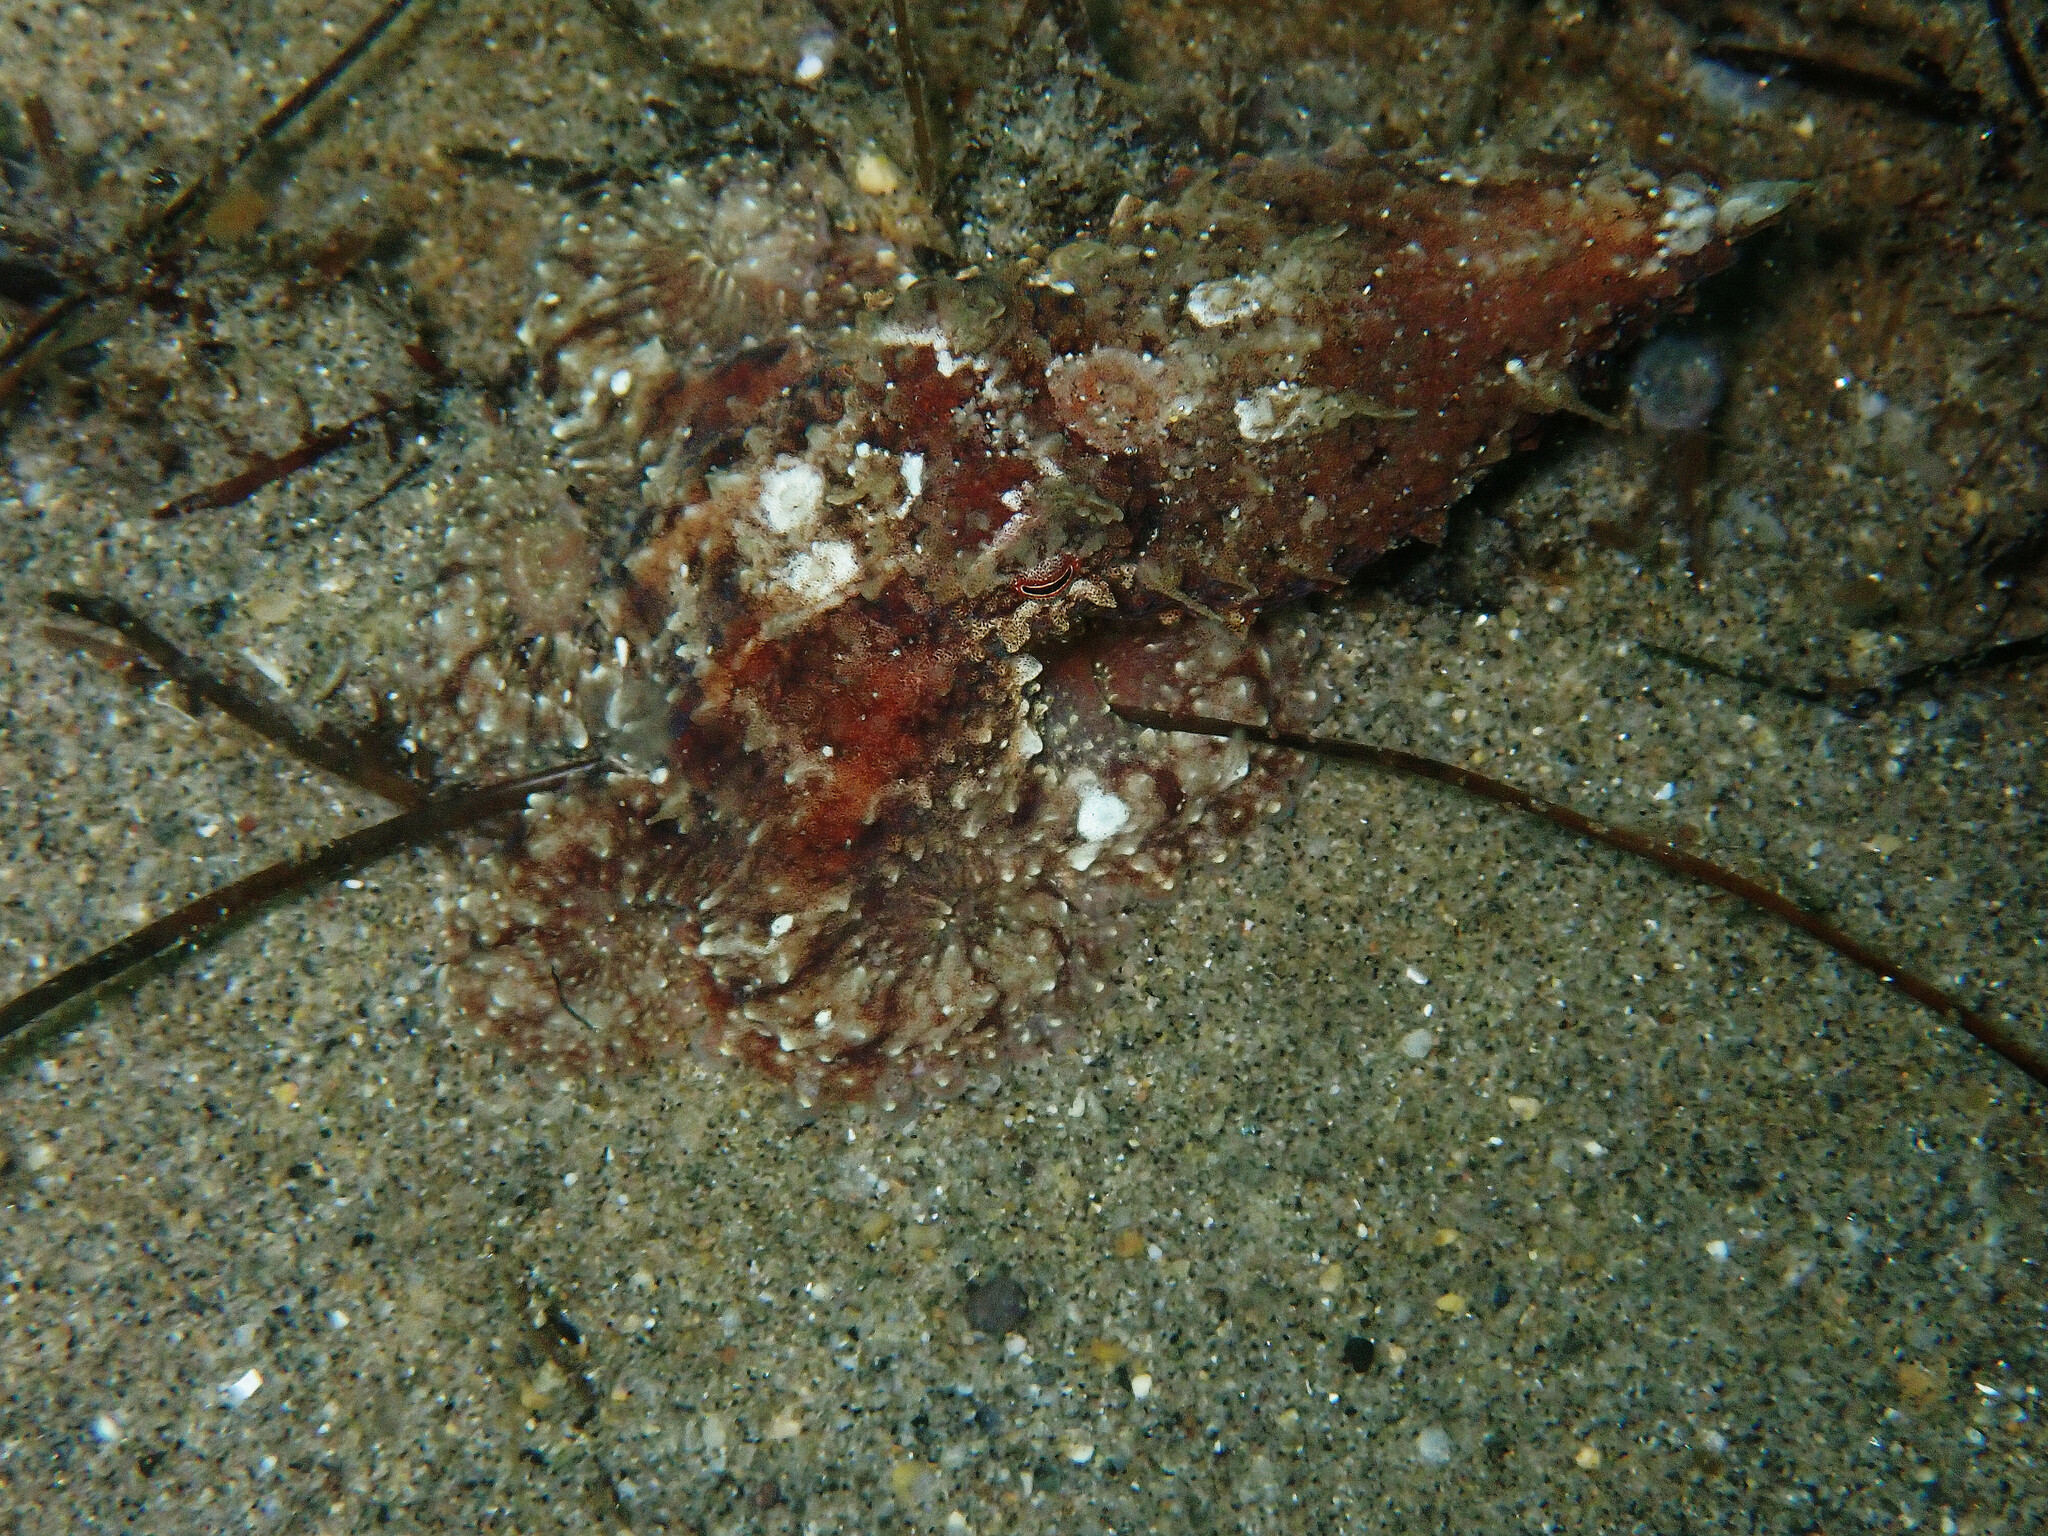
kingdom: Animalia
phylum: Mollusca
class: Cephalopoda
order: Octopoda
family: Octopodidae
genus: Octopus
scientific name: Octopus rubescens
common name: East pacific red octopus
